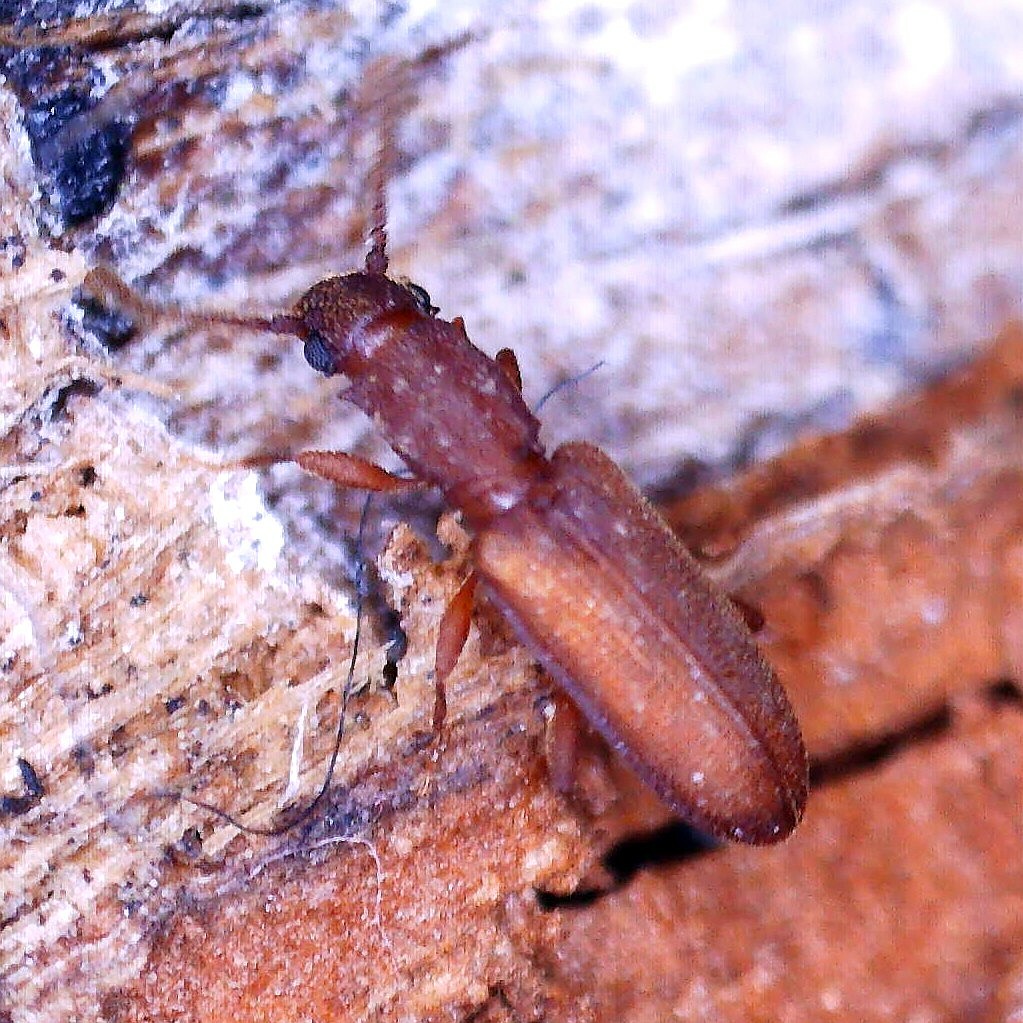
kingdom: Animalia
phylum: Arthropoda
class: Insecta
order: Coleoptera
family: Curculionidae
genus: Pityogenes
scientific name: Pityogenes bidentatus
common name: Two-toothed pine beetle
